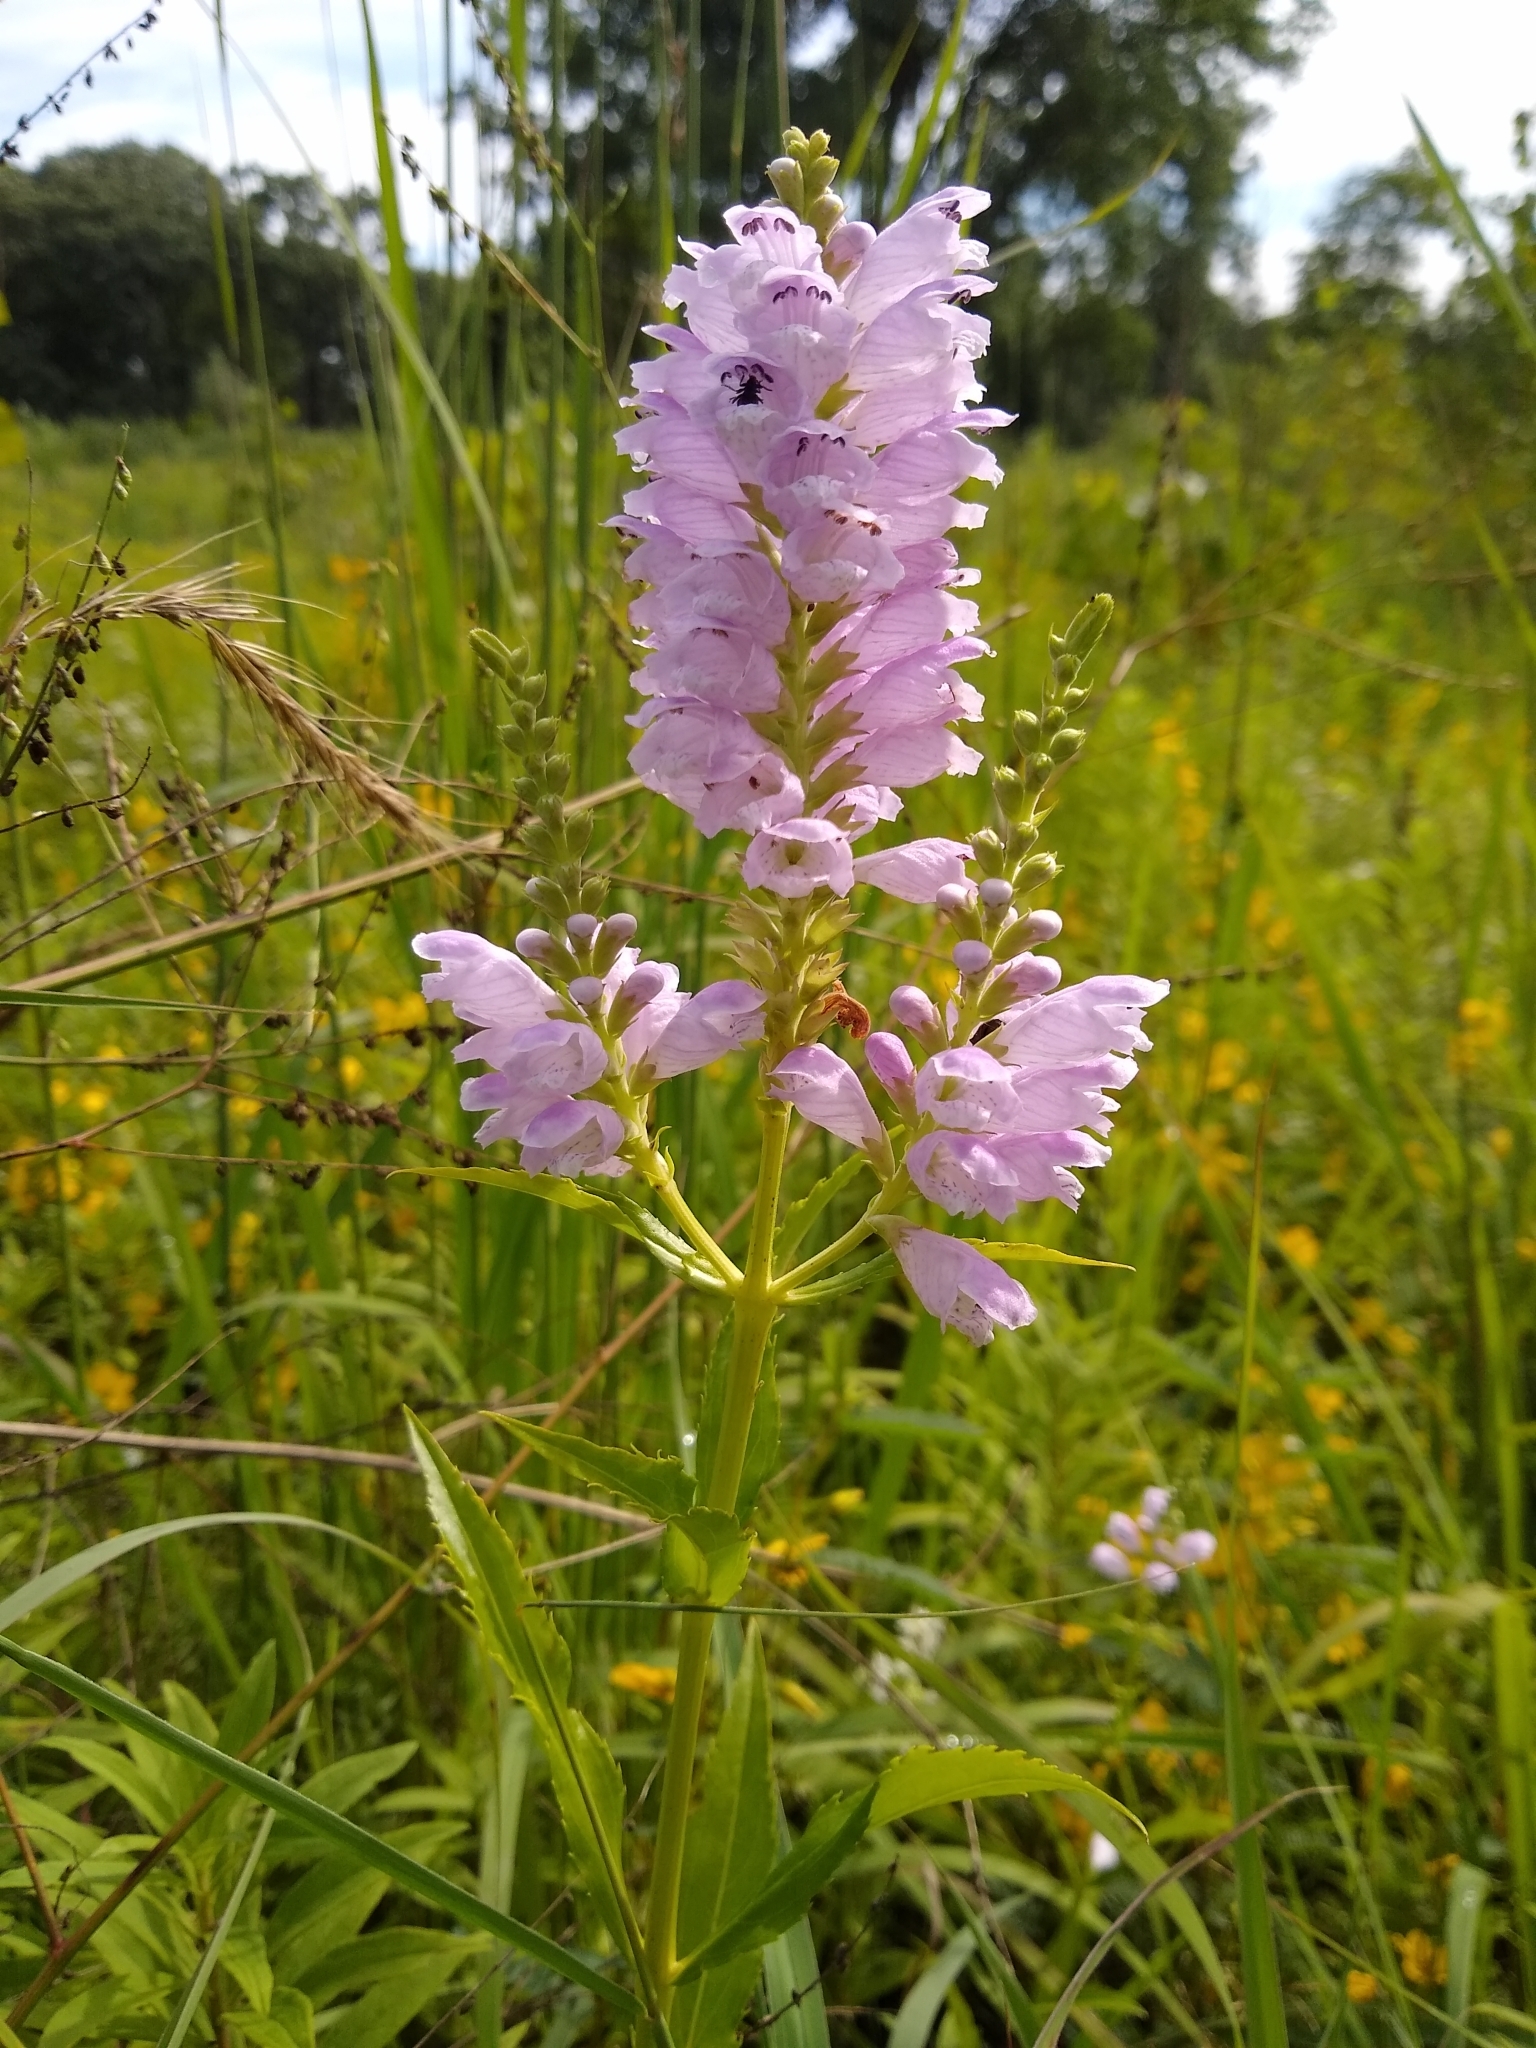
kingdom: Plantae
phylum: Tracheophyta
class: Magnoliopsida
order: Lamiales
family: Lamiaceae
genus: Physostegia
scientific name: Physostegia virginiana
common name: Obedient-plant
